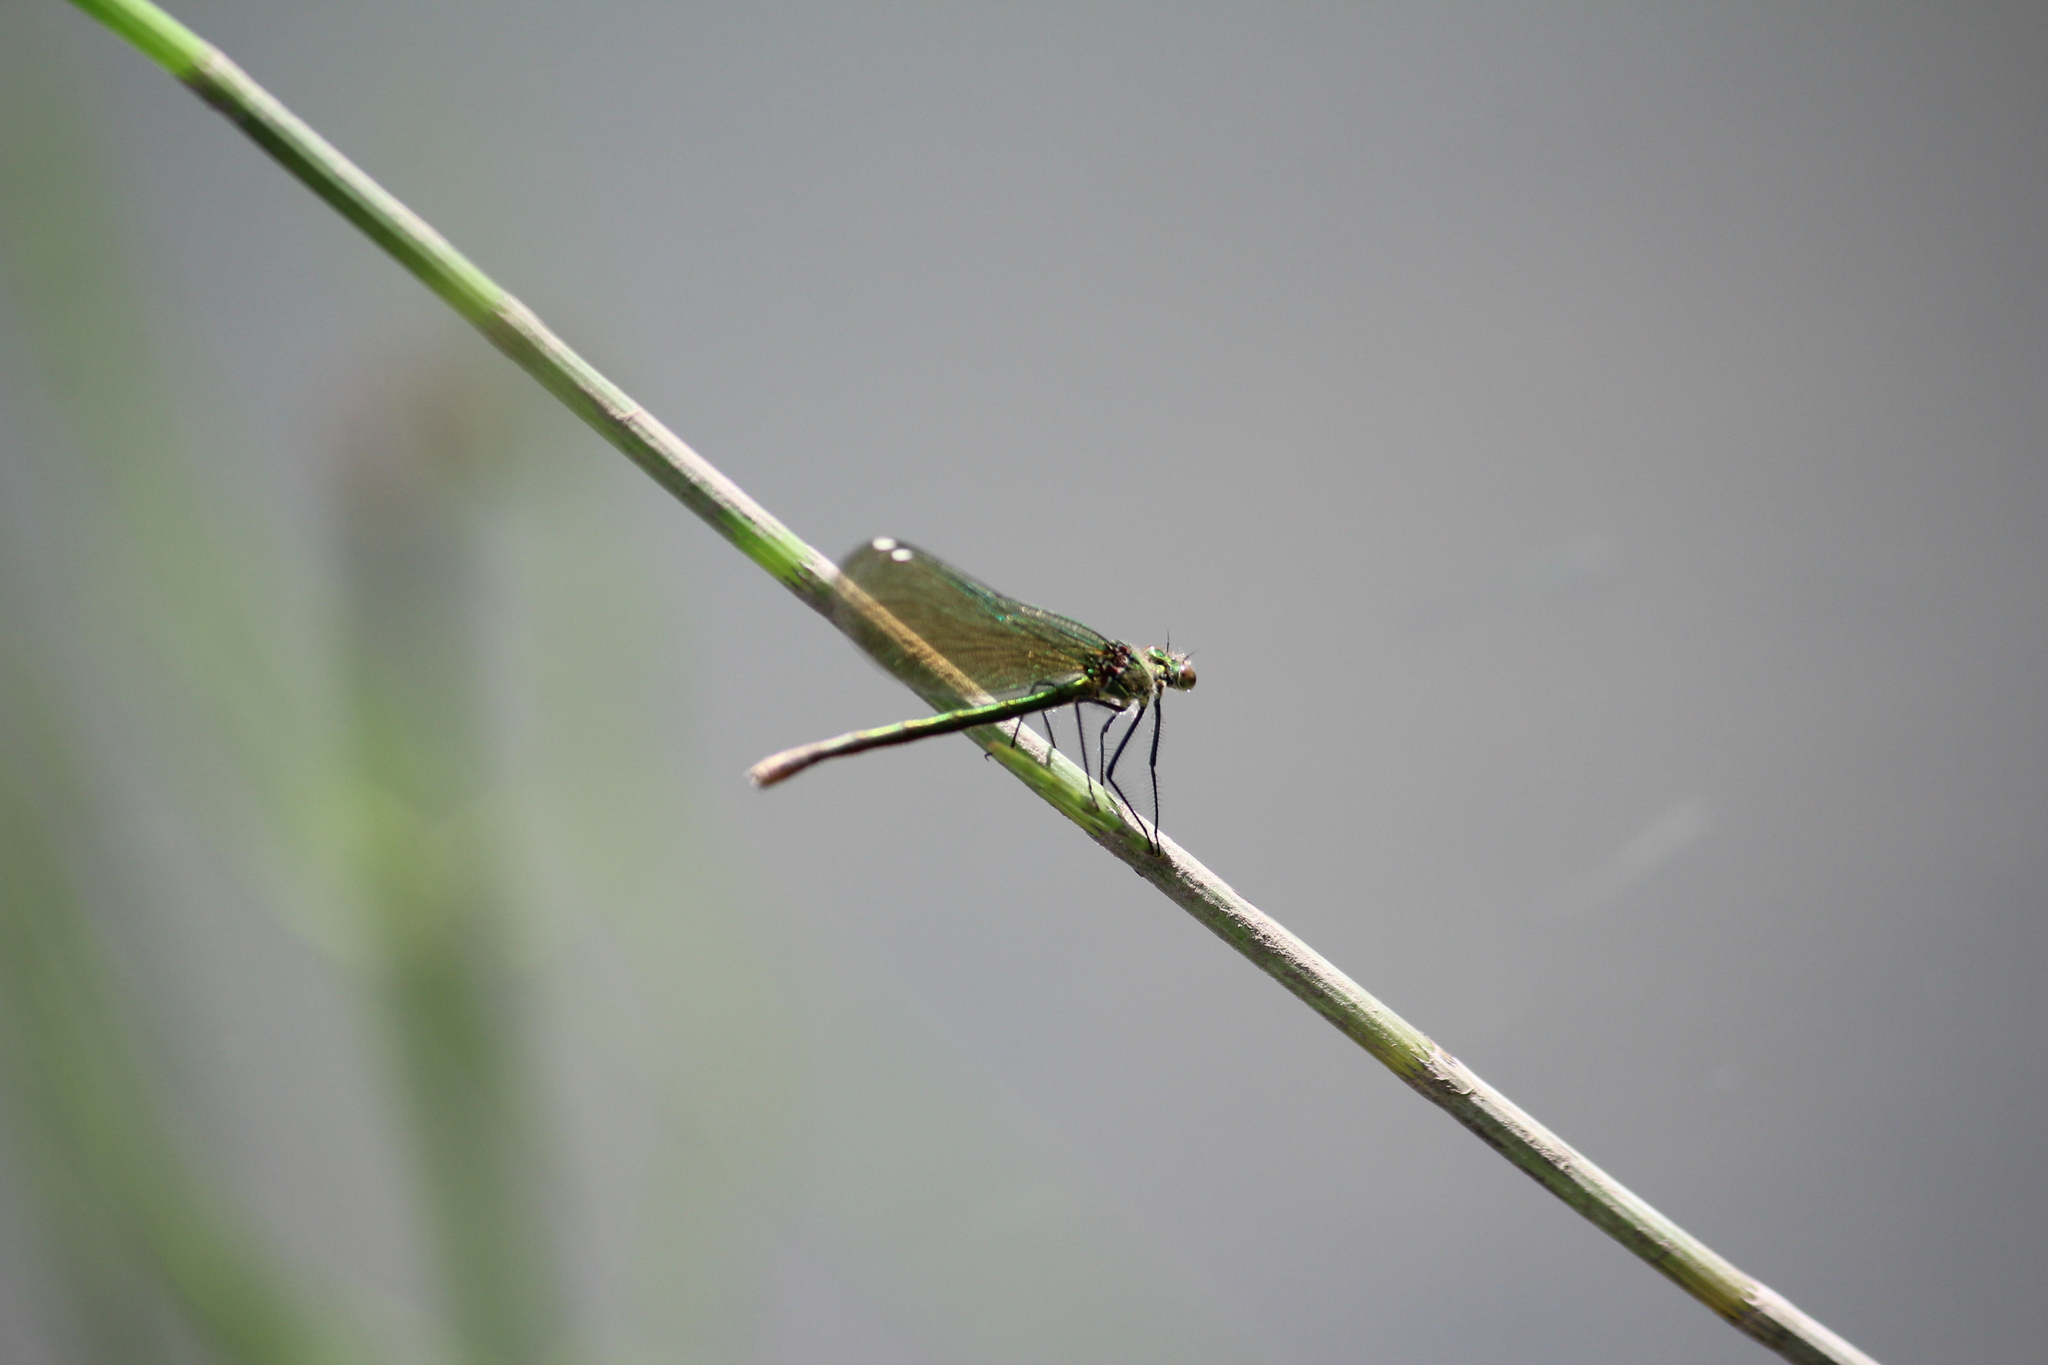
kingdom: Animalia
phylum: Arthropoda
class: Insecta
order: Odonata
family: Calopterygidae
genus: Calopteryx
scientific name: Calopteryx splendens
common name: Banded demoiselle
